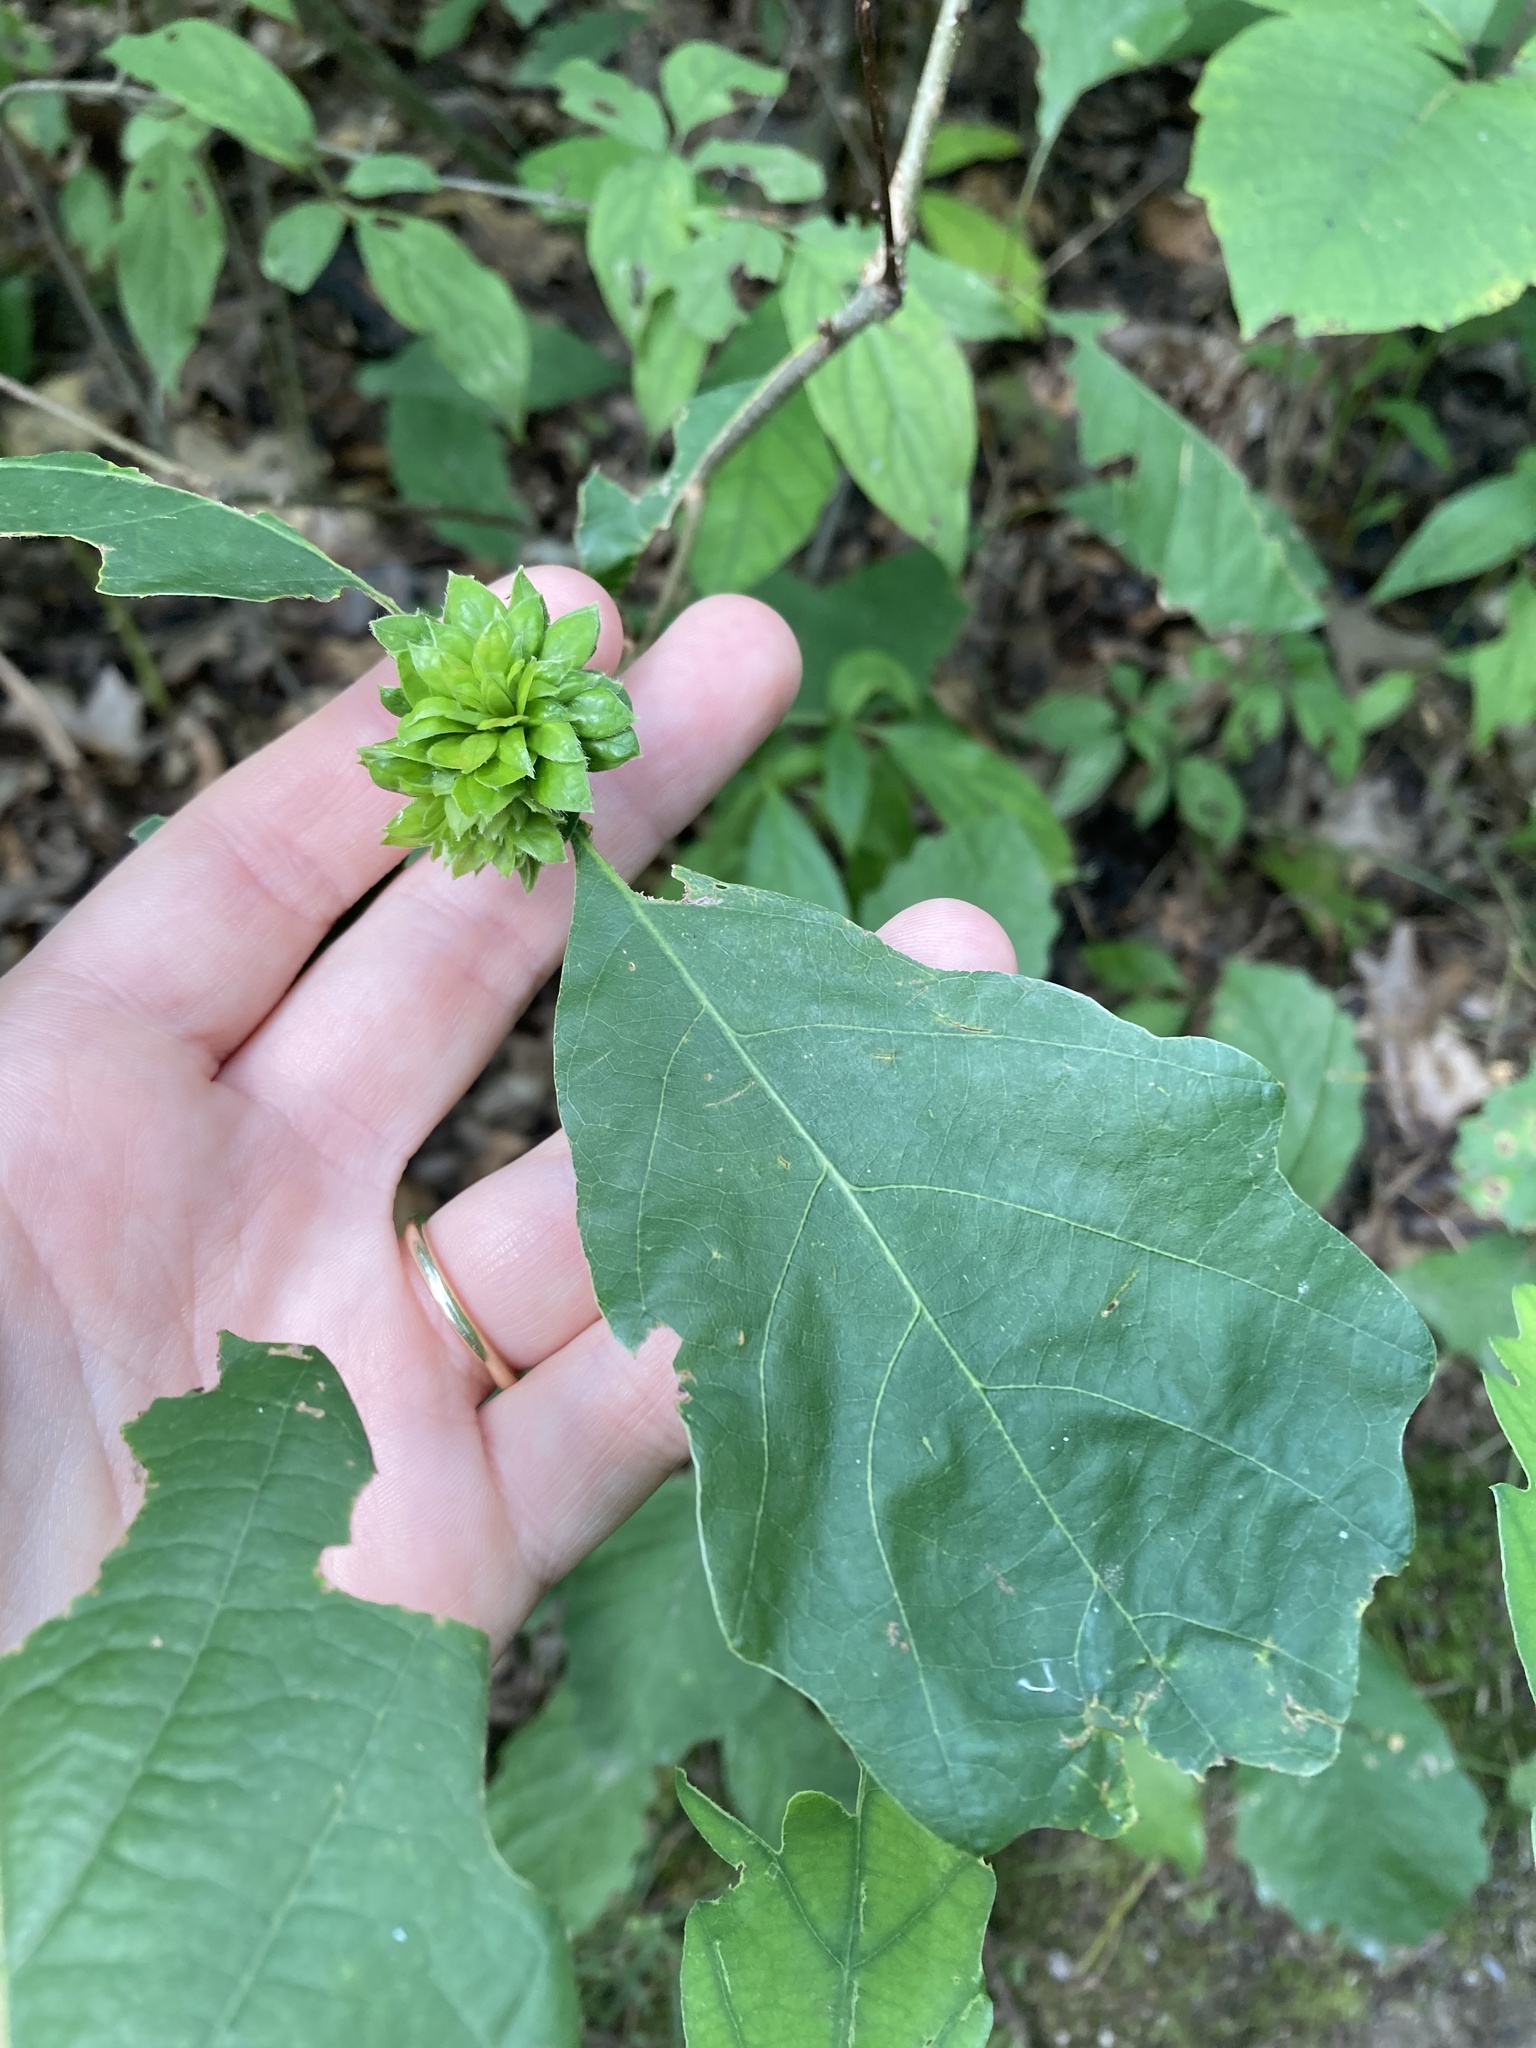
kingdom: Animalia
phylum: Arthropoda
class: Insecta
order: Hymenoptera
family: Cynipidae
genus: Andricus
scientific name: Andricus
